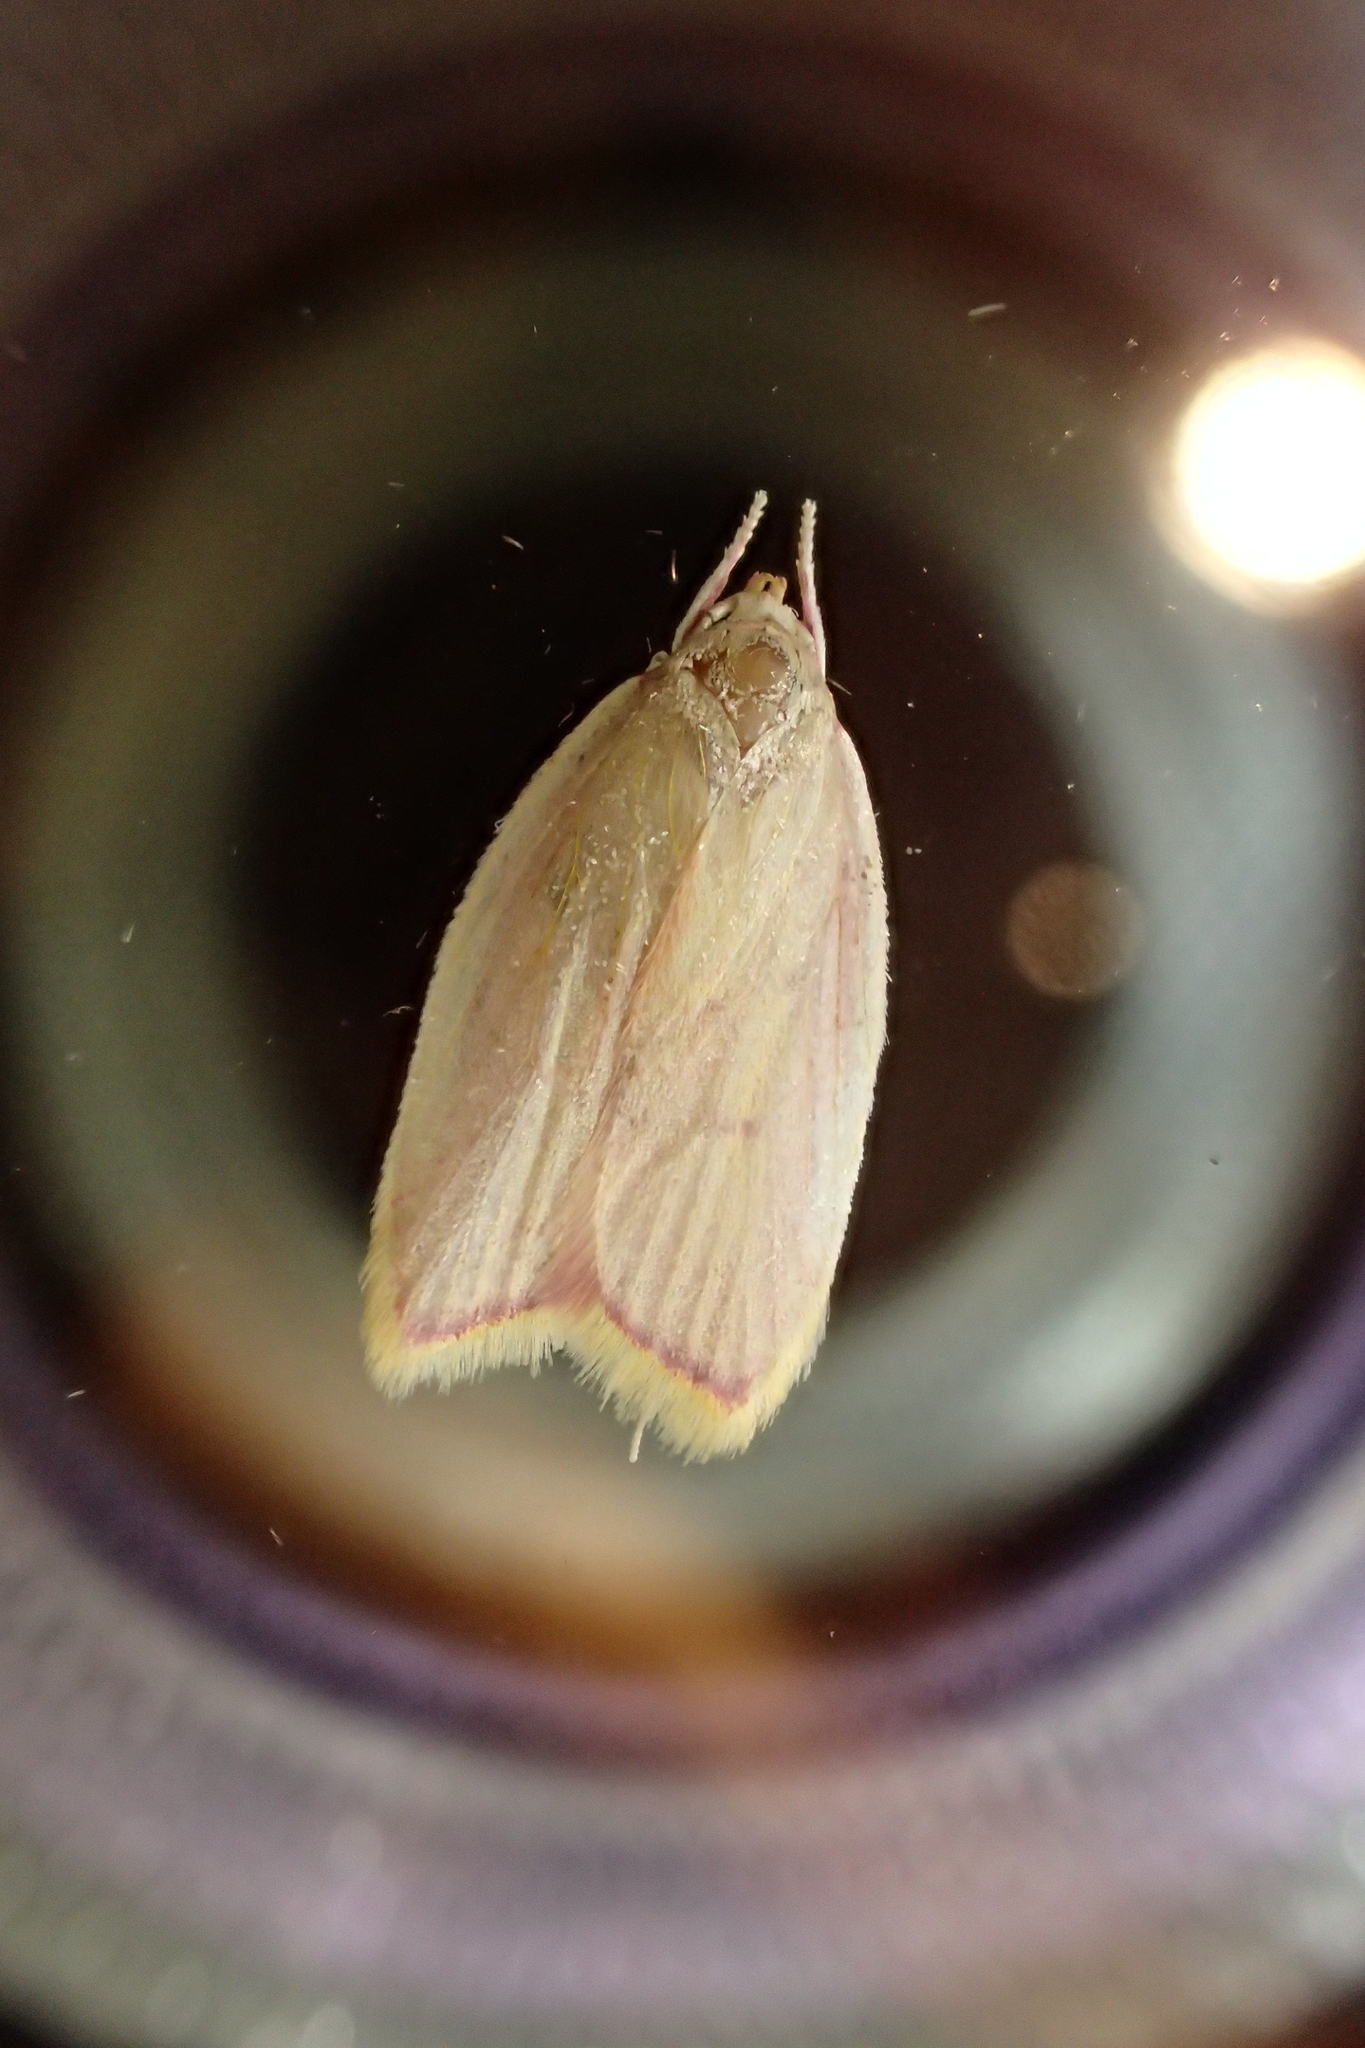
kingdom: Animalia
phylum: Arthropoda
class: Insecta
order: Lepidoptera
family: Peleopodidae
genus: Carcina
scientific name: Carcina quercana
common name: Moth
